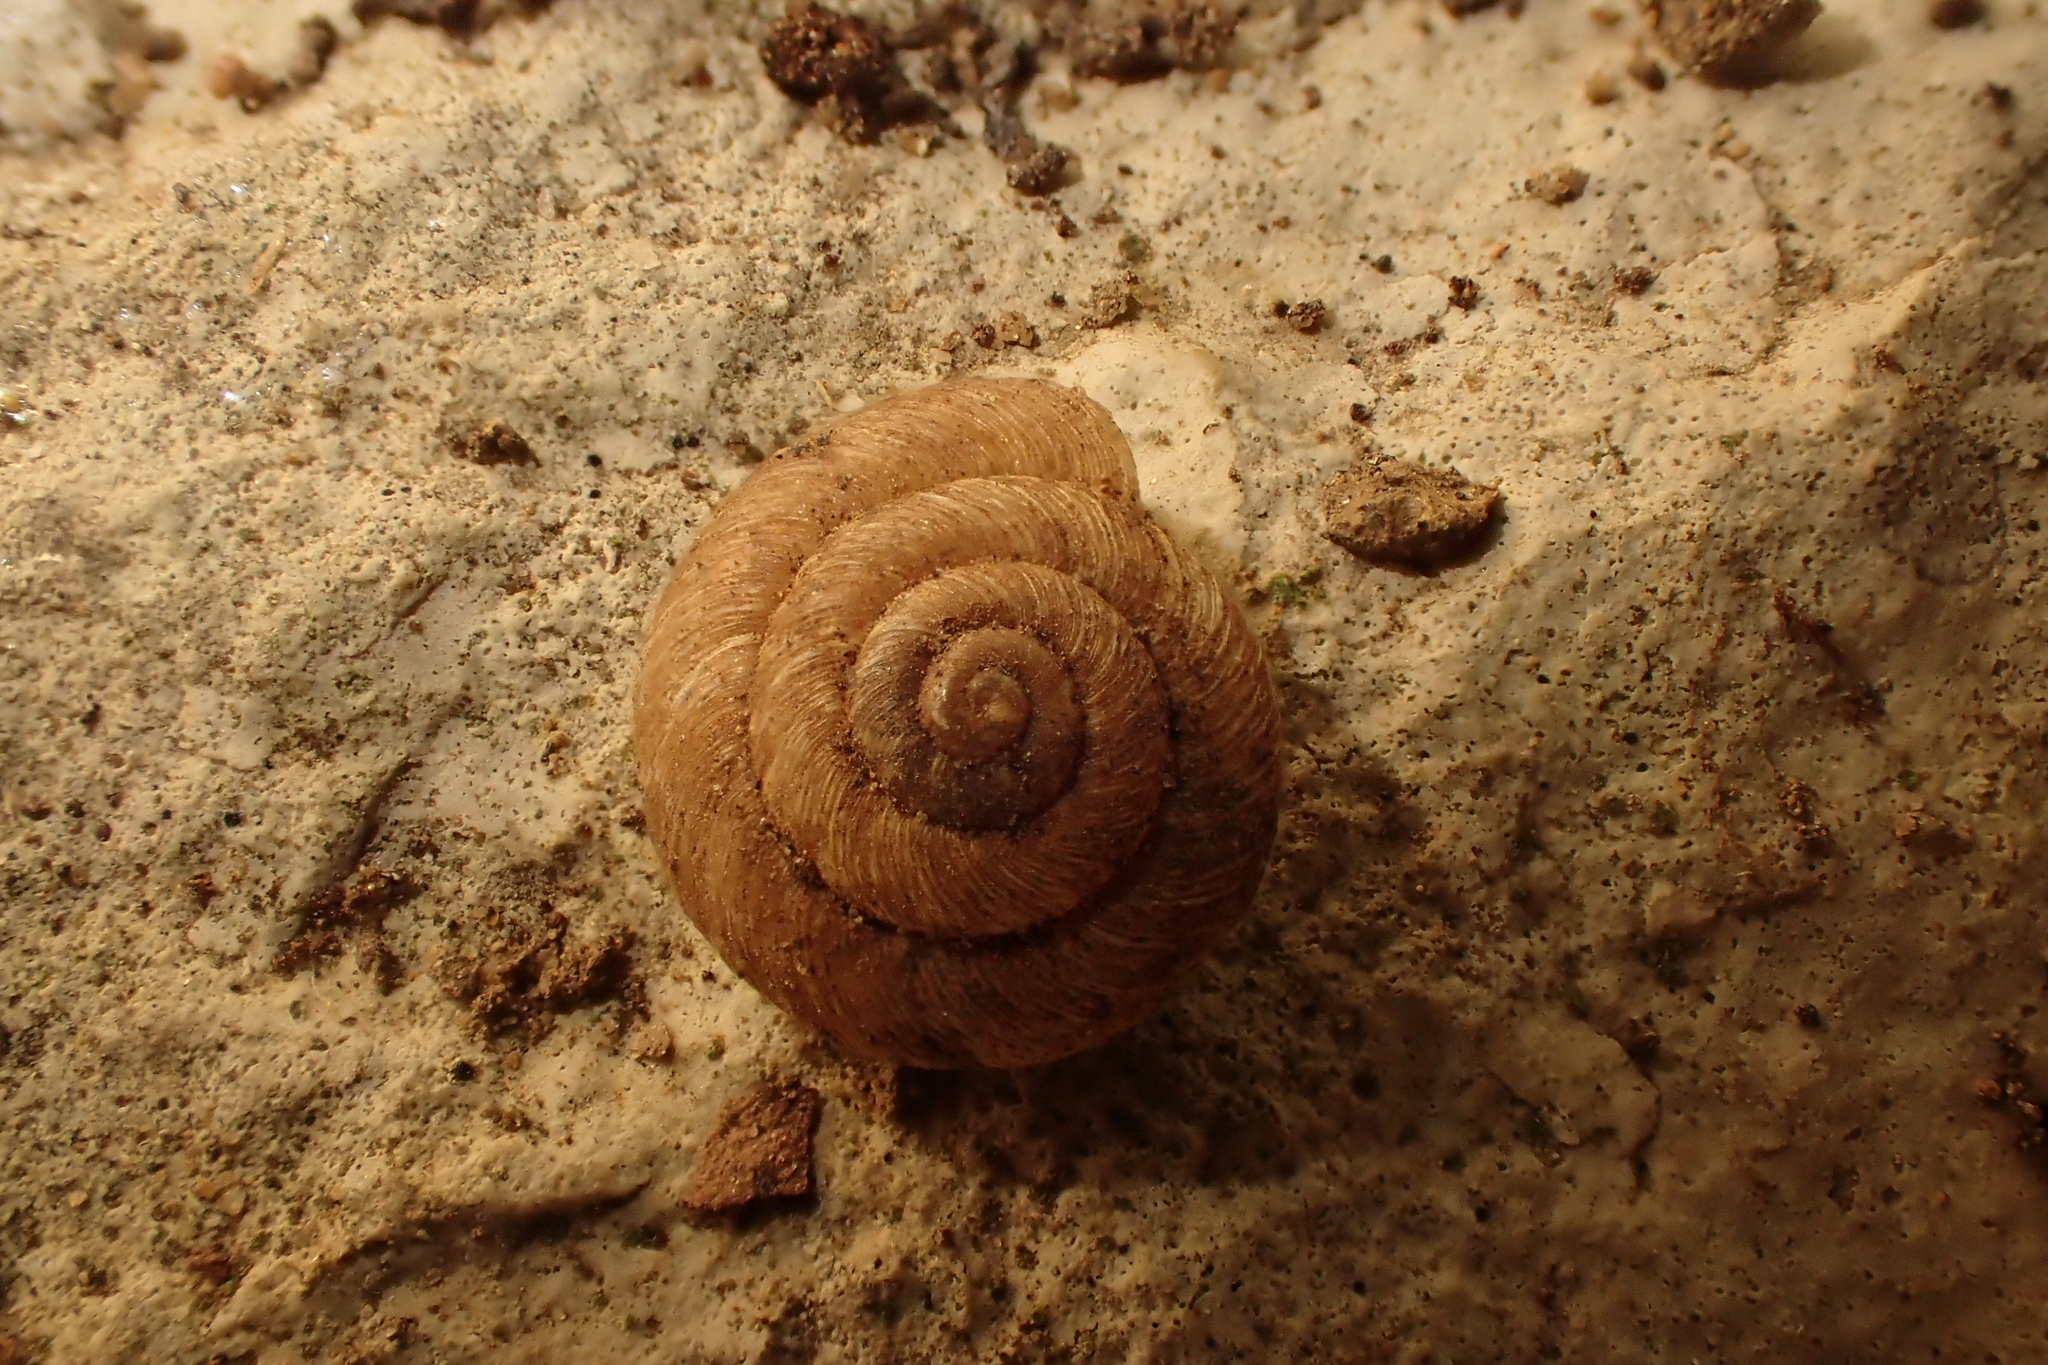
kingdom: Animalia
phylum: Mollusca
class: Gastropoda
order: Stylommatophora
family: Geomitridae
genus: Xerotricha
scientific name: Xerotricha conspurcata
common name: Snail
